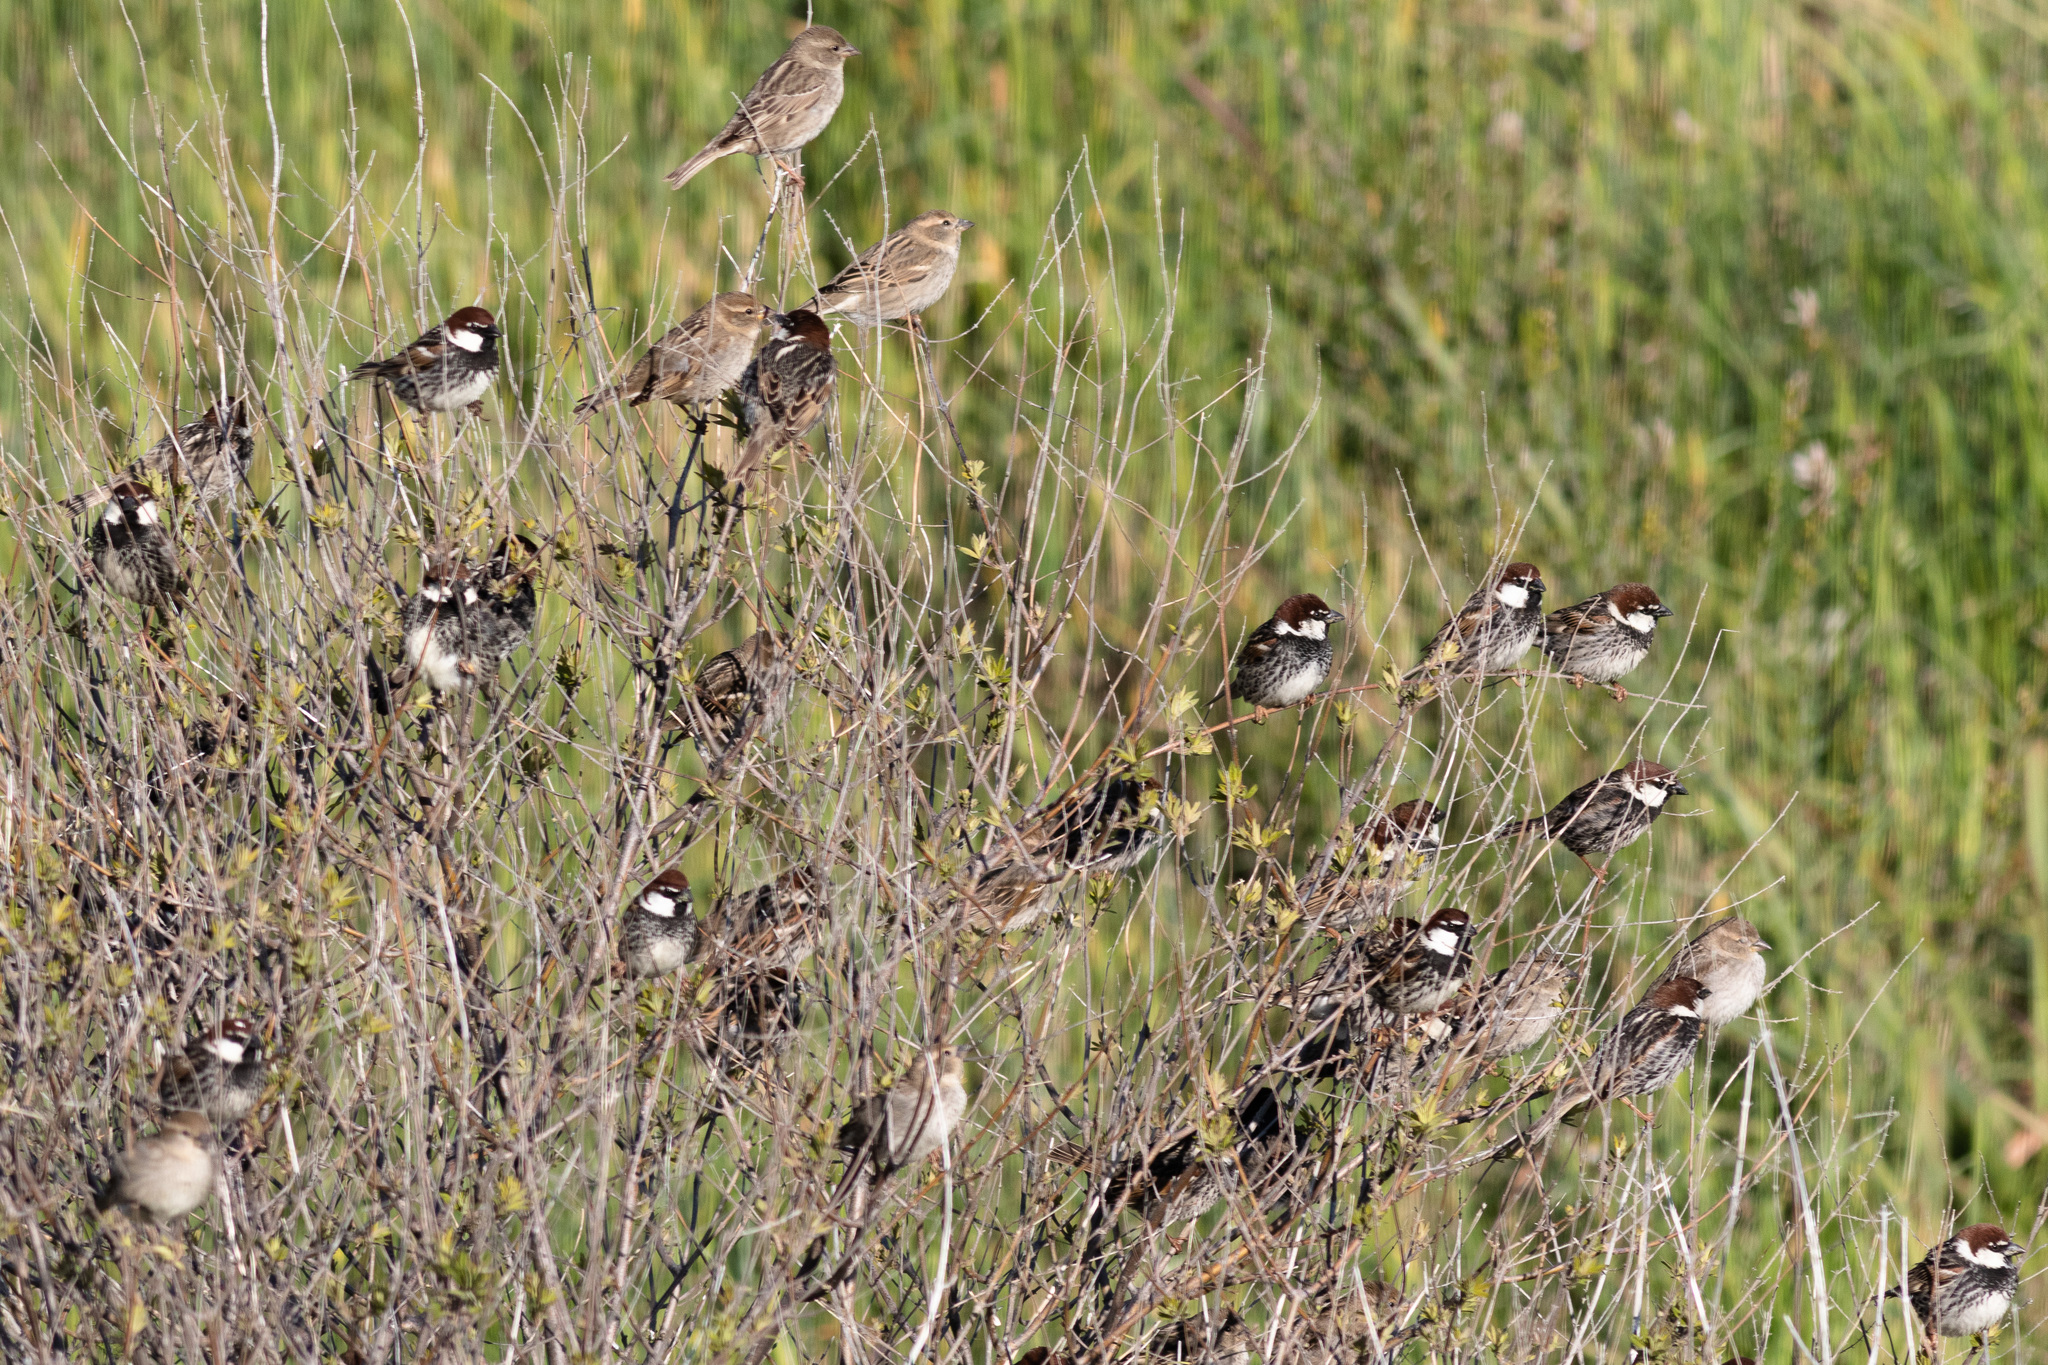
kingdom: Animalia
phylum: Chordata
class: Aves
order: Passeriformes
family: Passeridae
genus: Passer
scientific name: Passer hispaniolensis
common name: Spanish sparrow
